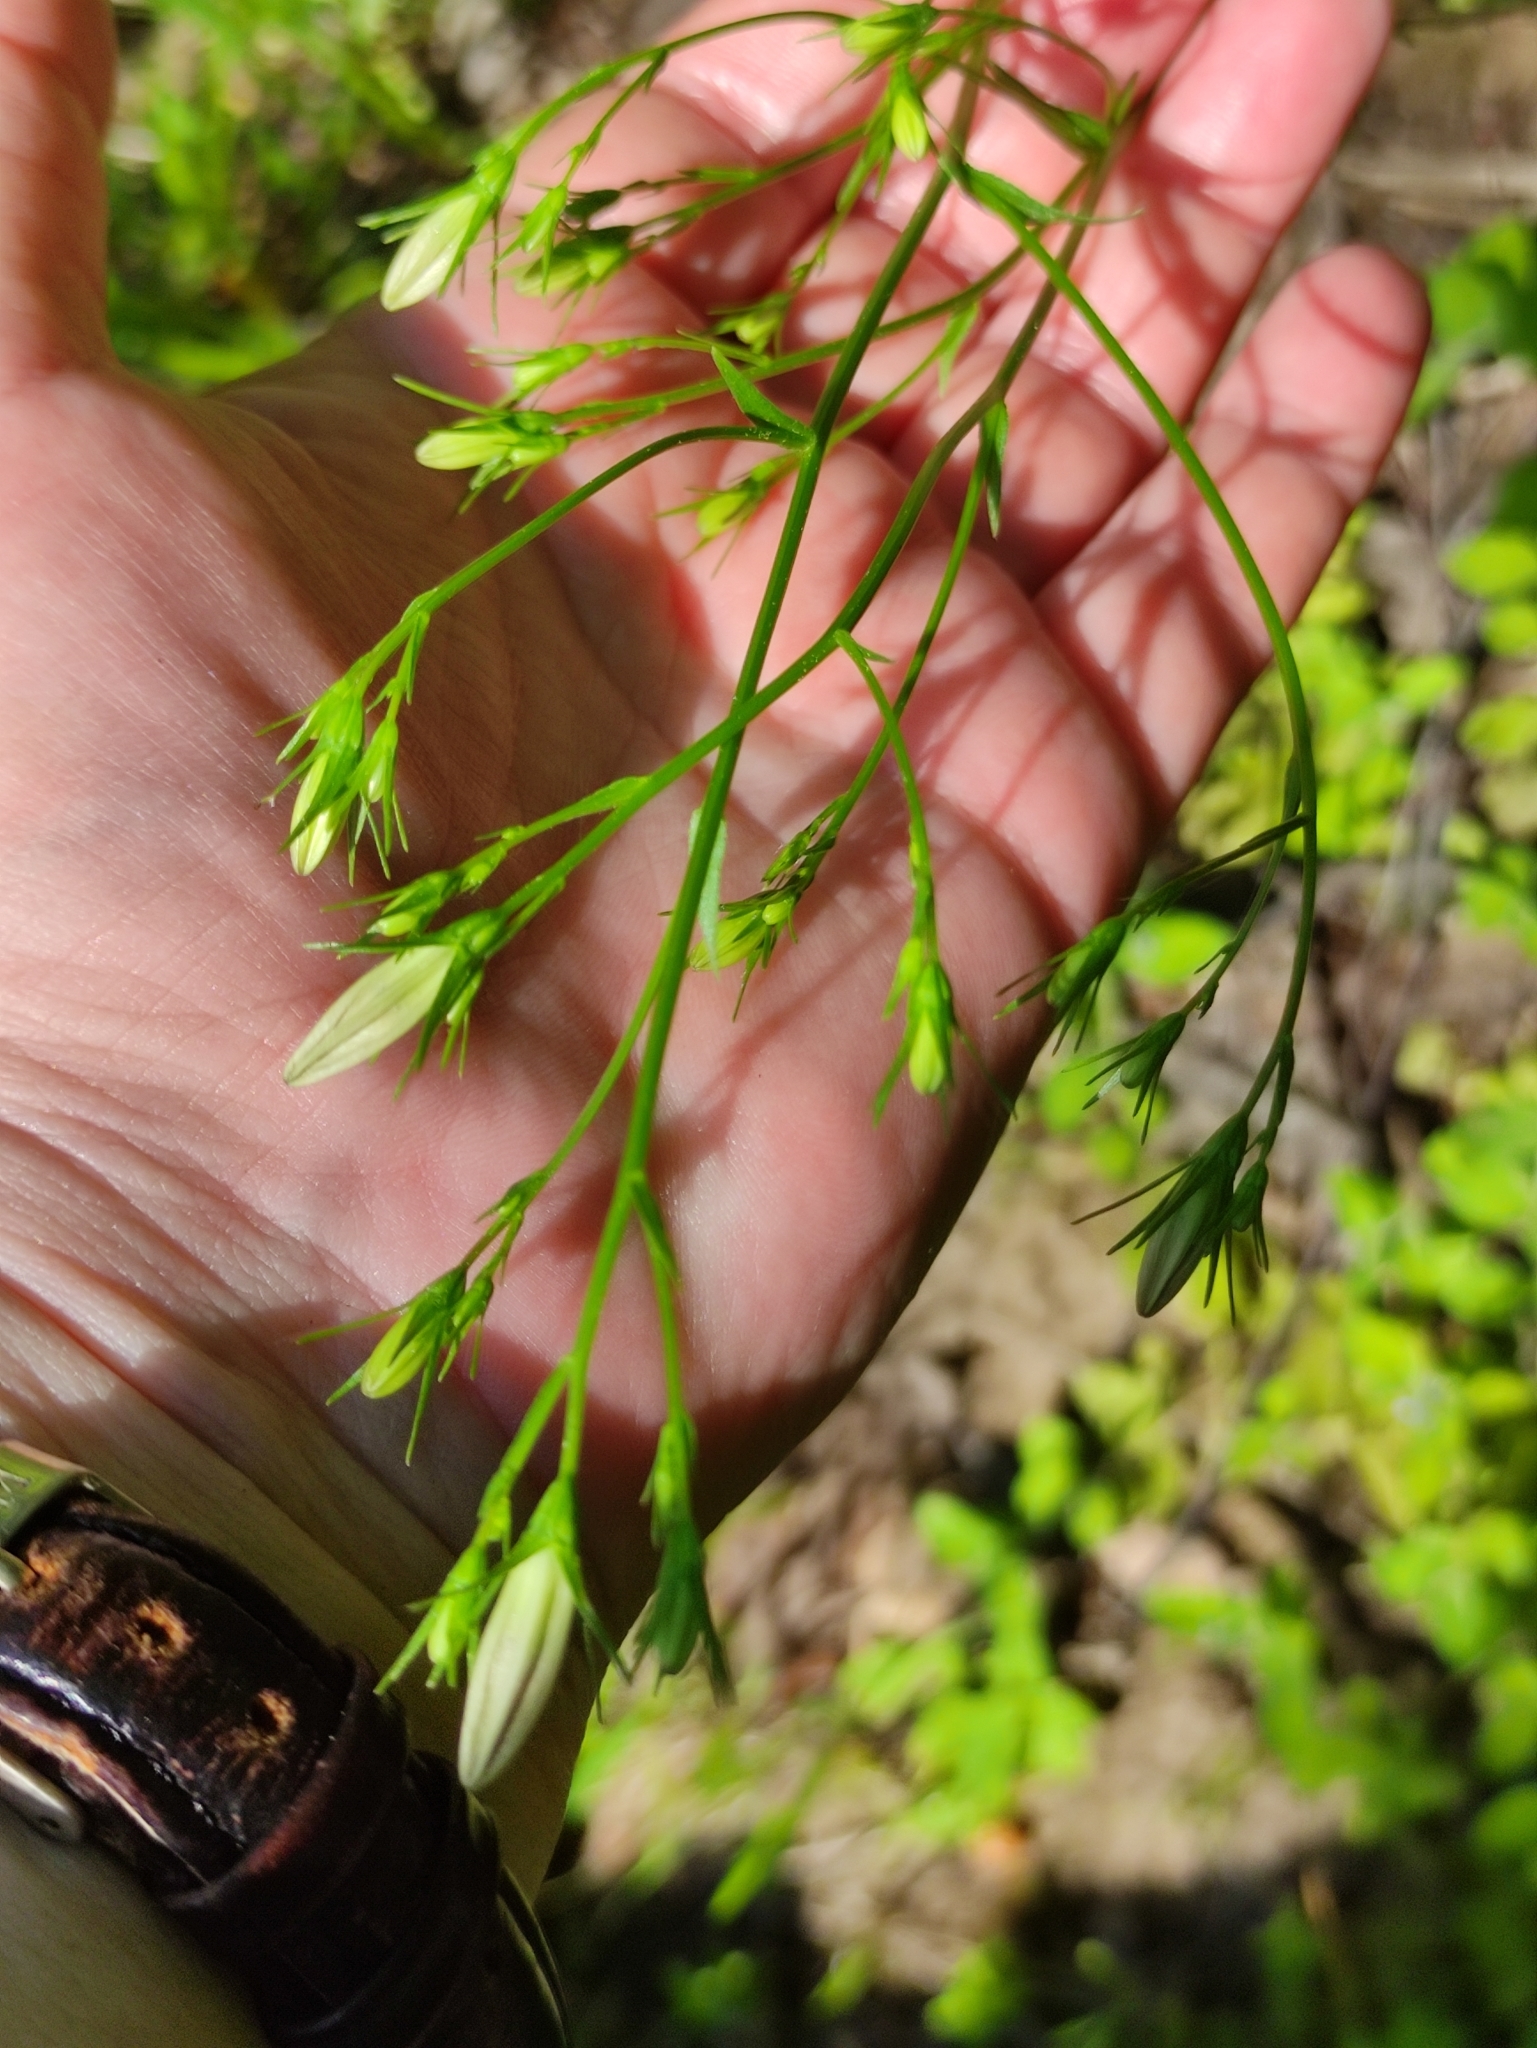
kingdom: Plantae
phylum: Tracheophyta
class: Magnoliopsida
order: Asterales
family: Campanulaceae
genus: Campanula
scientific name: Campanula patula
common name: Spreading bellflower
